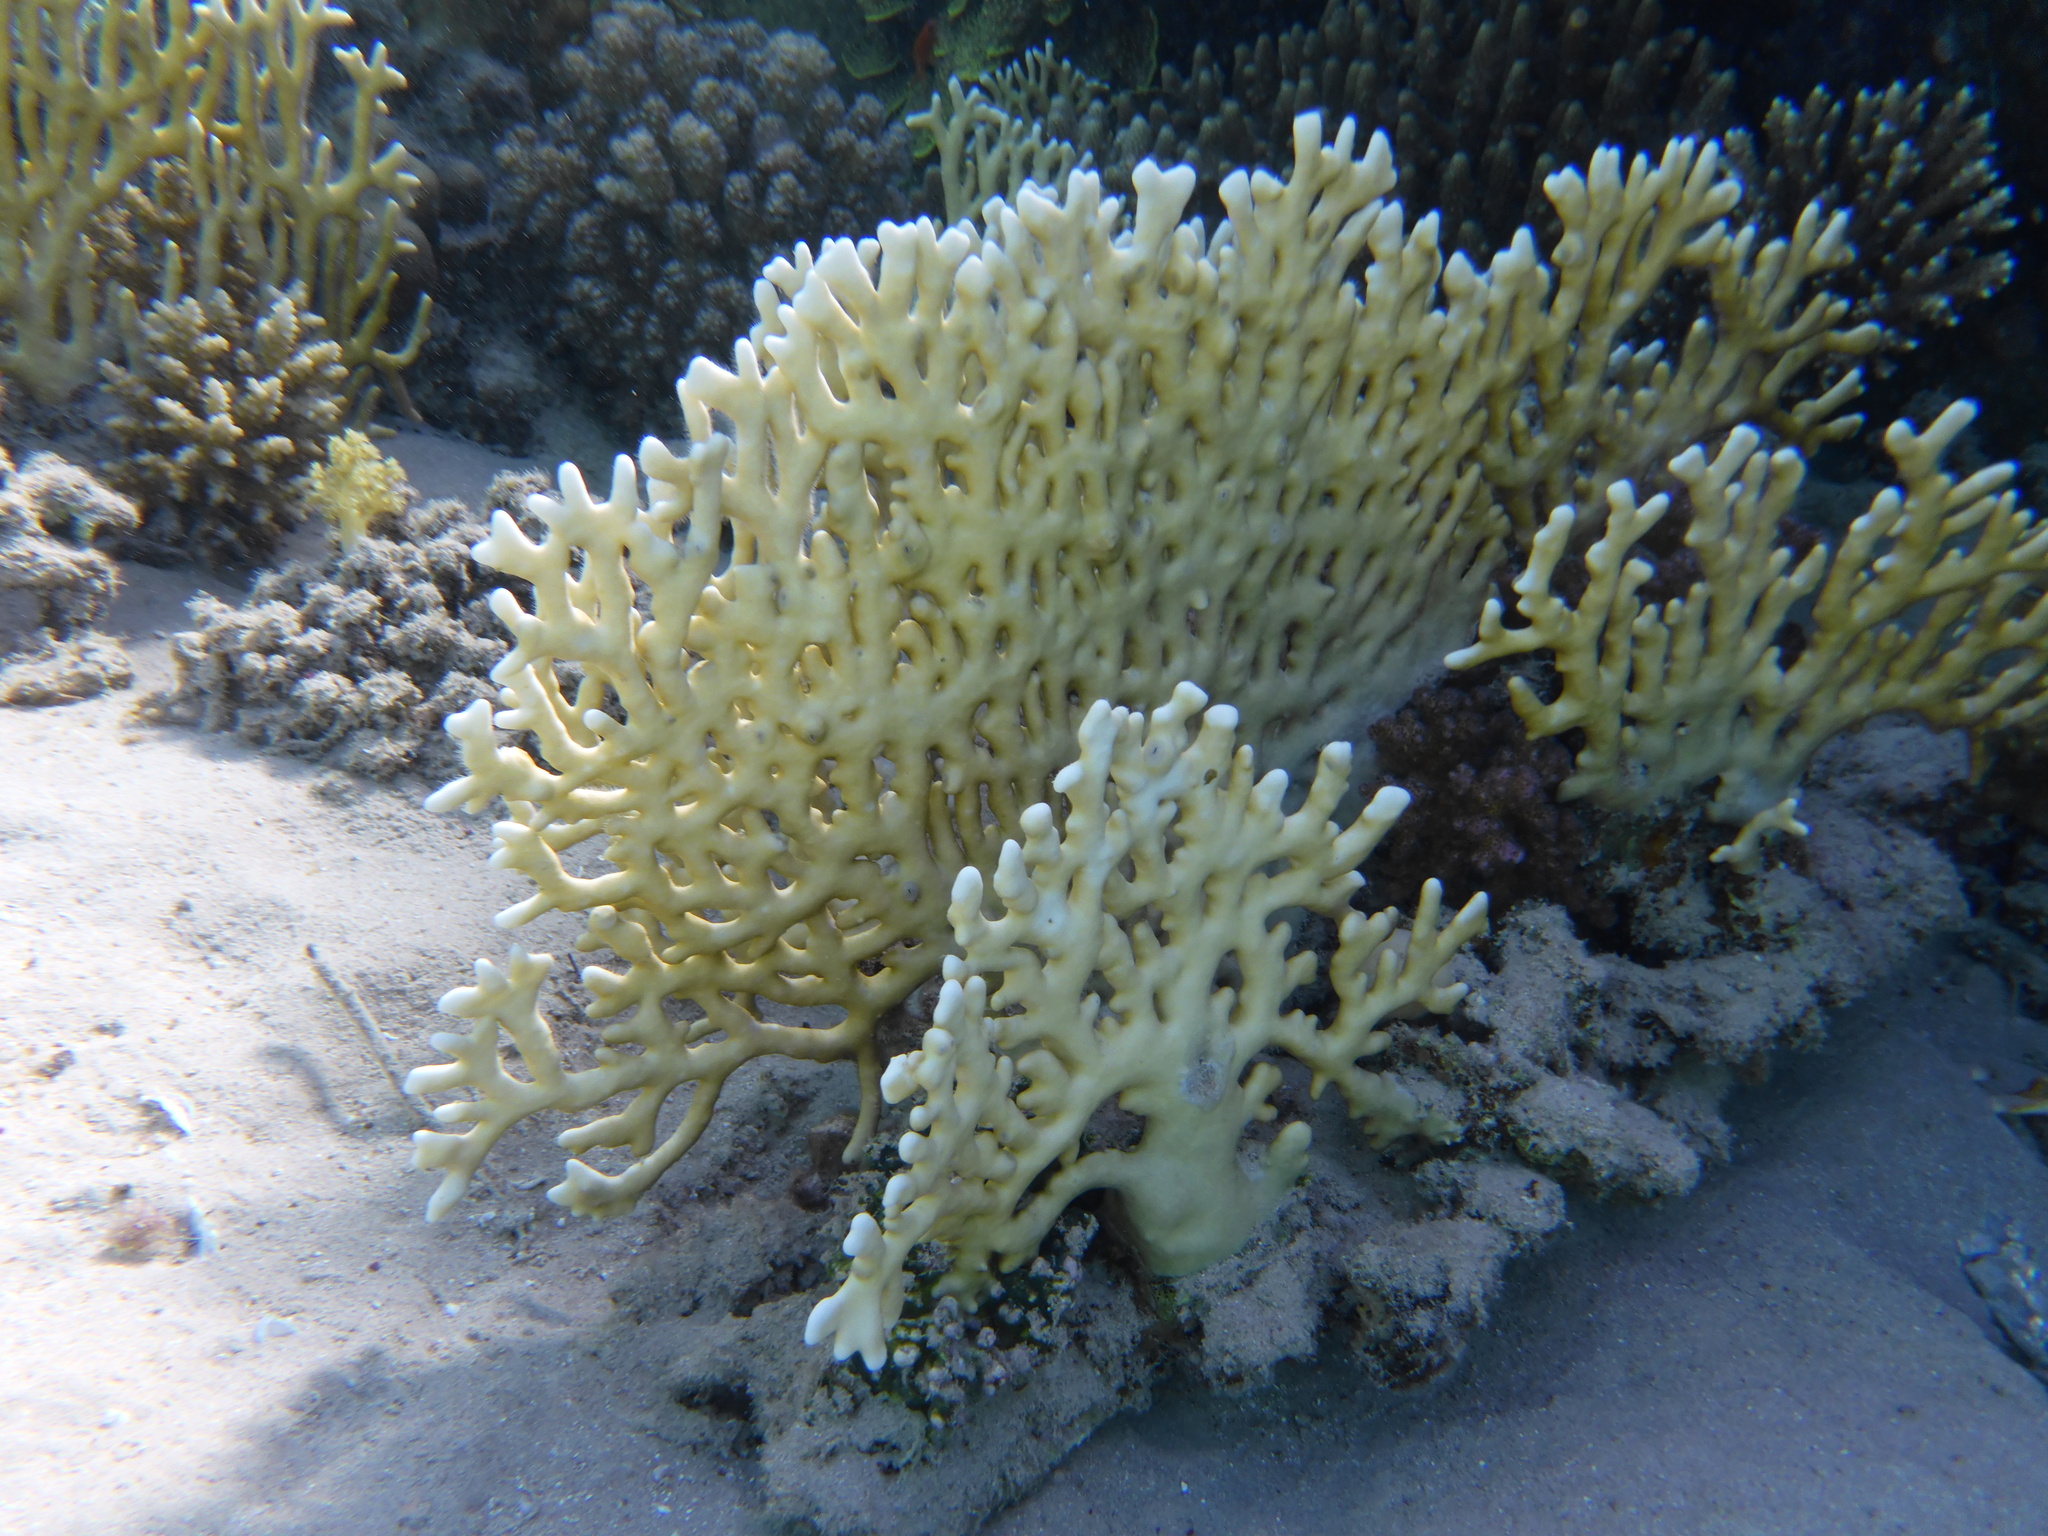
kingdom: Animalia
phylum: Cnidaria
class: Hydrozoa
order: Anthoathecata
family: Milleporidae
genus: Millepora
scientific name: Millepora dichotoma
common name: Ramified fire coral
